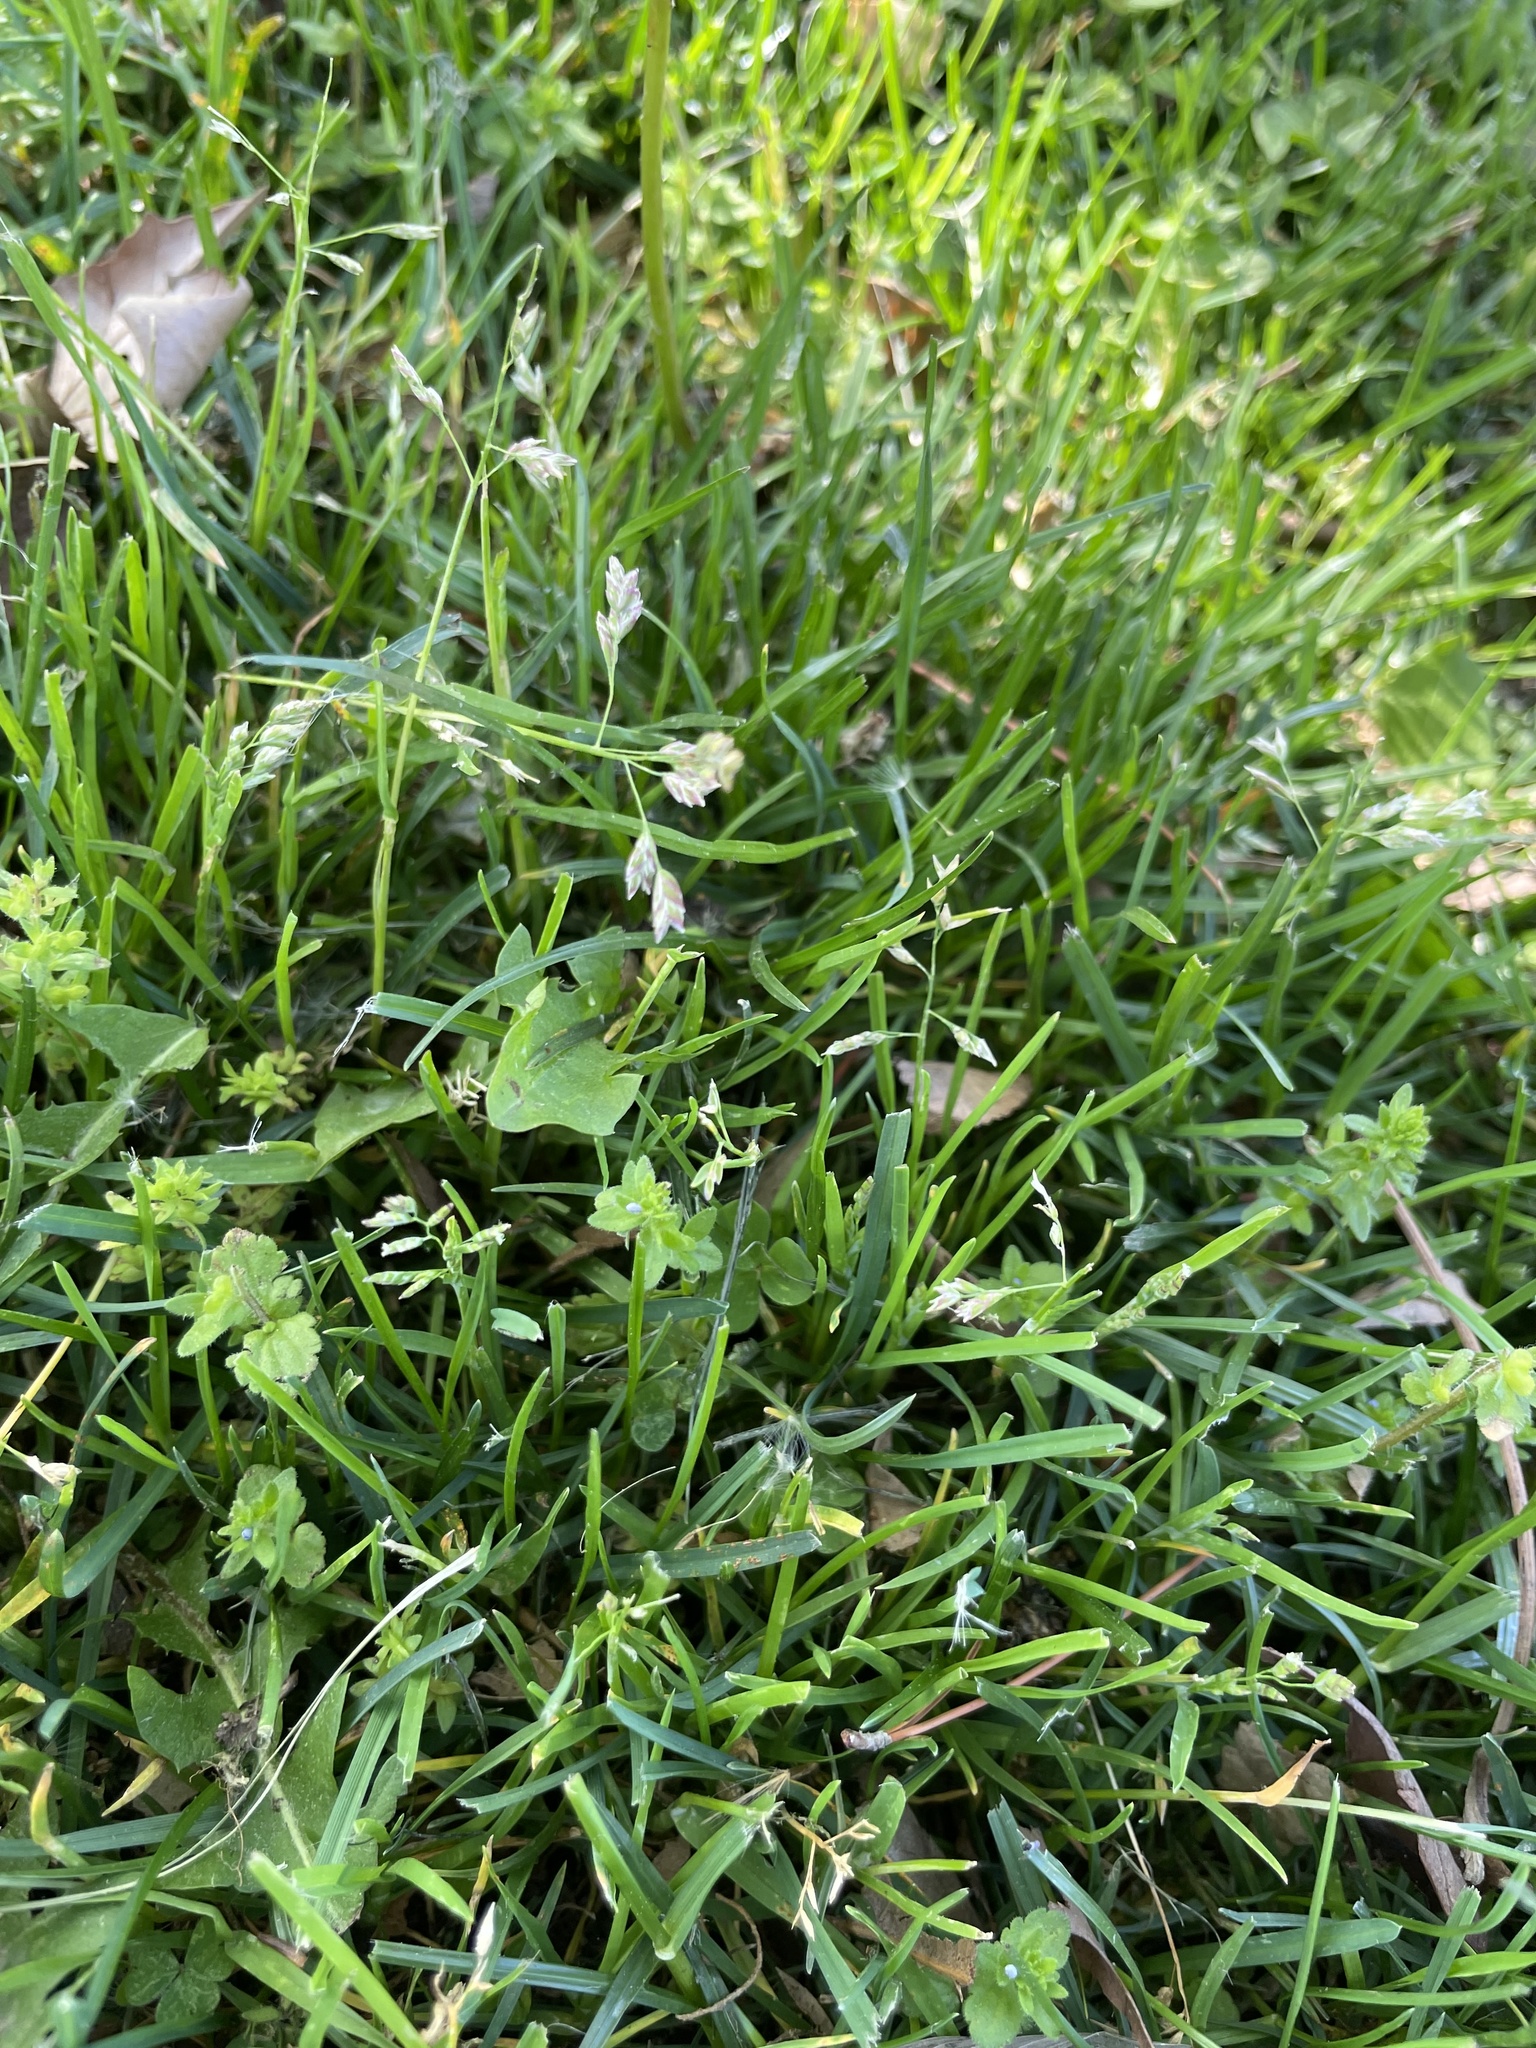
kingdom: Plantae
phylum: Tracheophyta
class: Liliopsida
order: Poales
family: Poaceae
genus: Poa
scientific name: Poa annua
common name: Annual bluegrass
